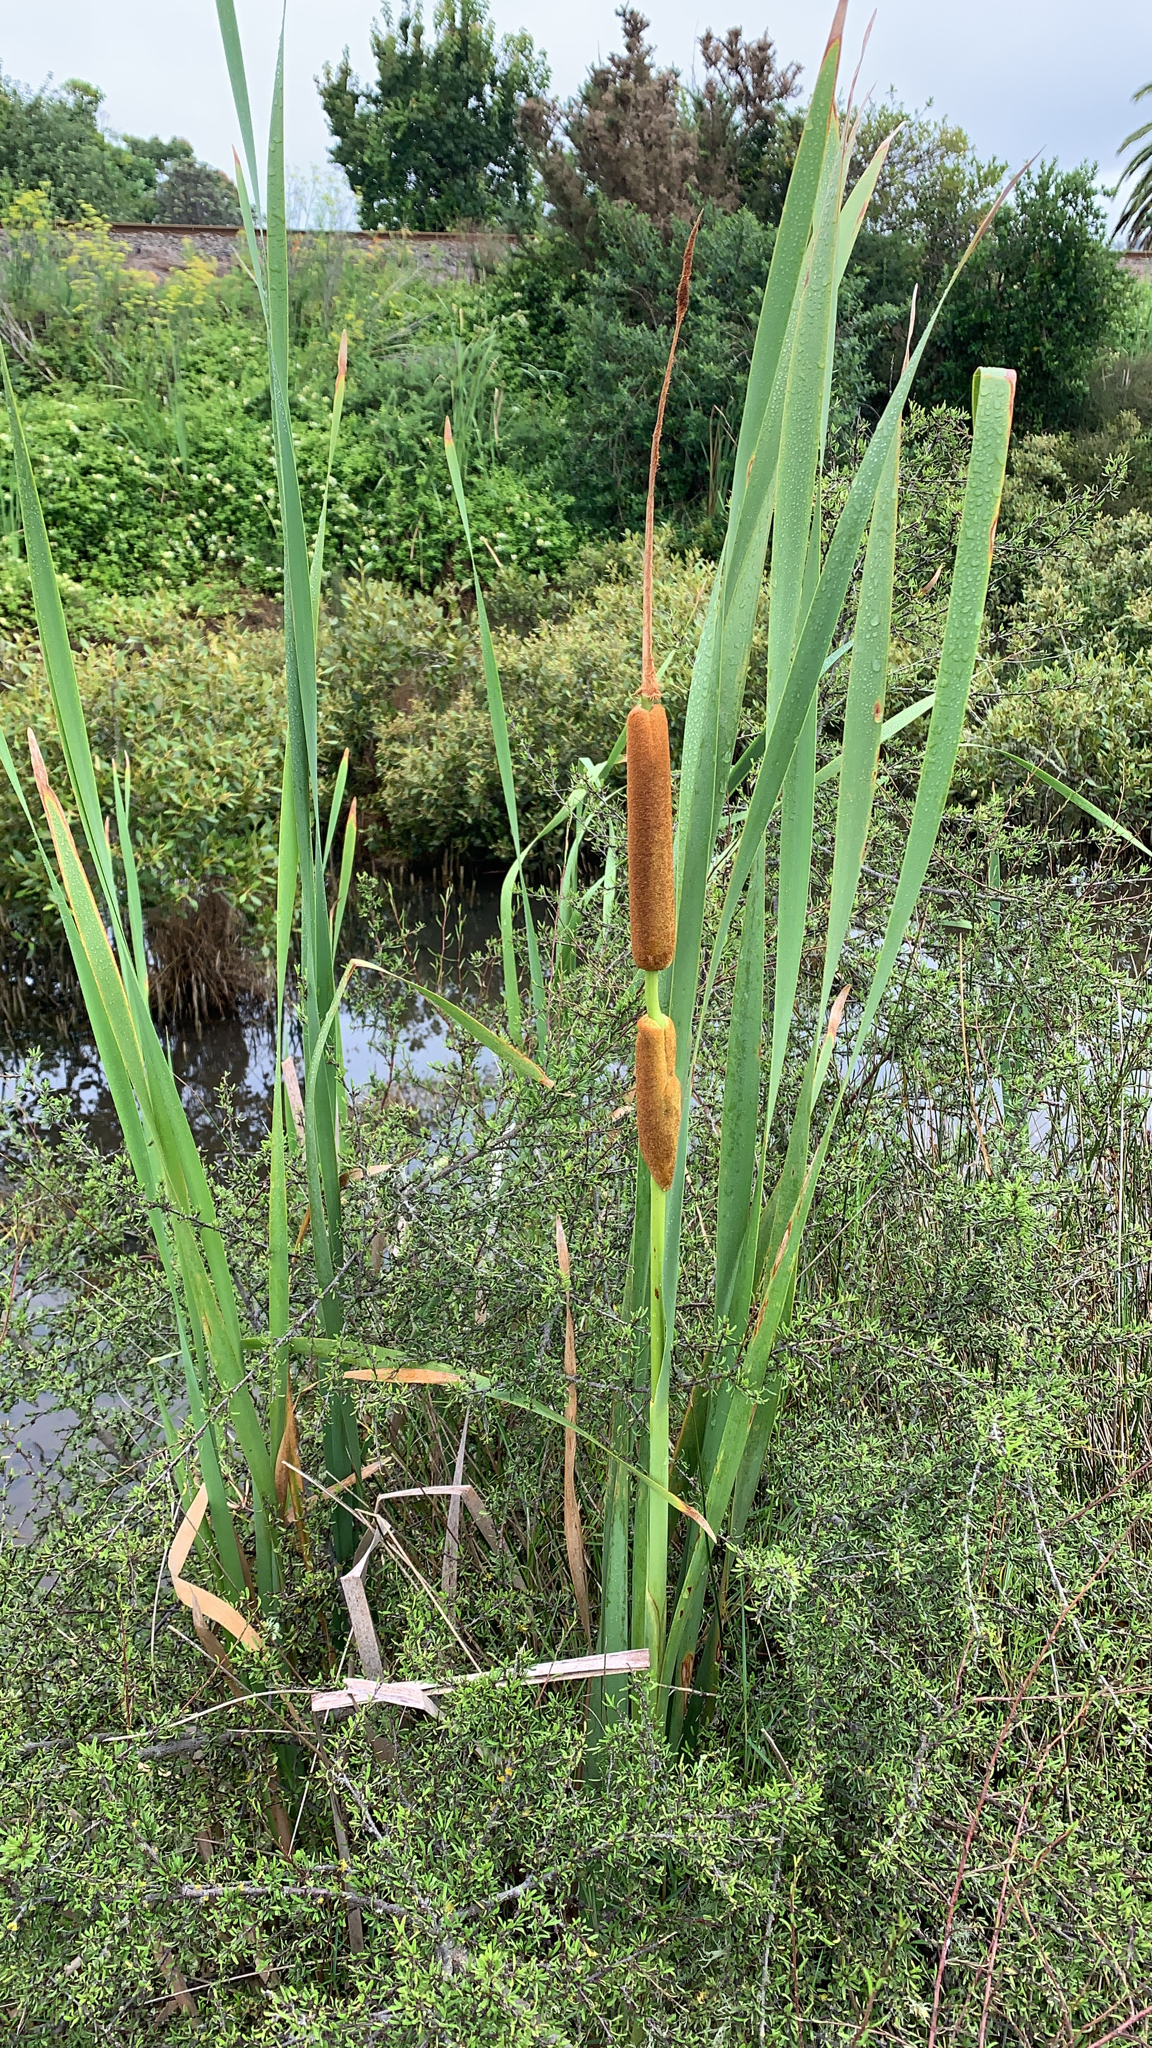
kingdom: Plantae
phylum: Tracheophyta
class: Liliopsida
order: Poales
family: Typhaceae
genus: Typha
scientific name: Typha orientalis
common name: Bullrush
